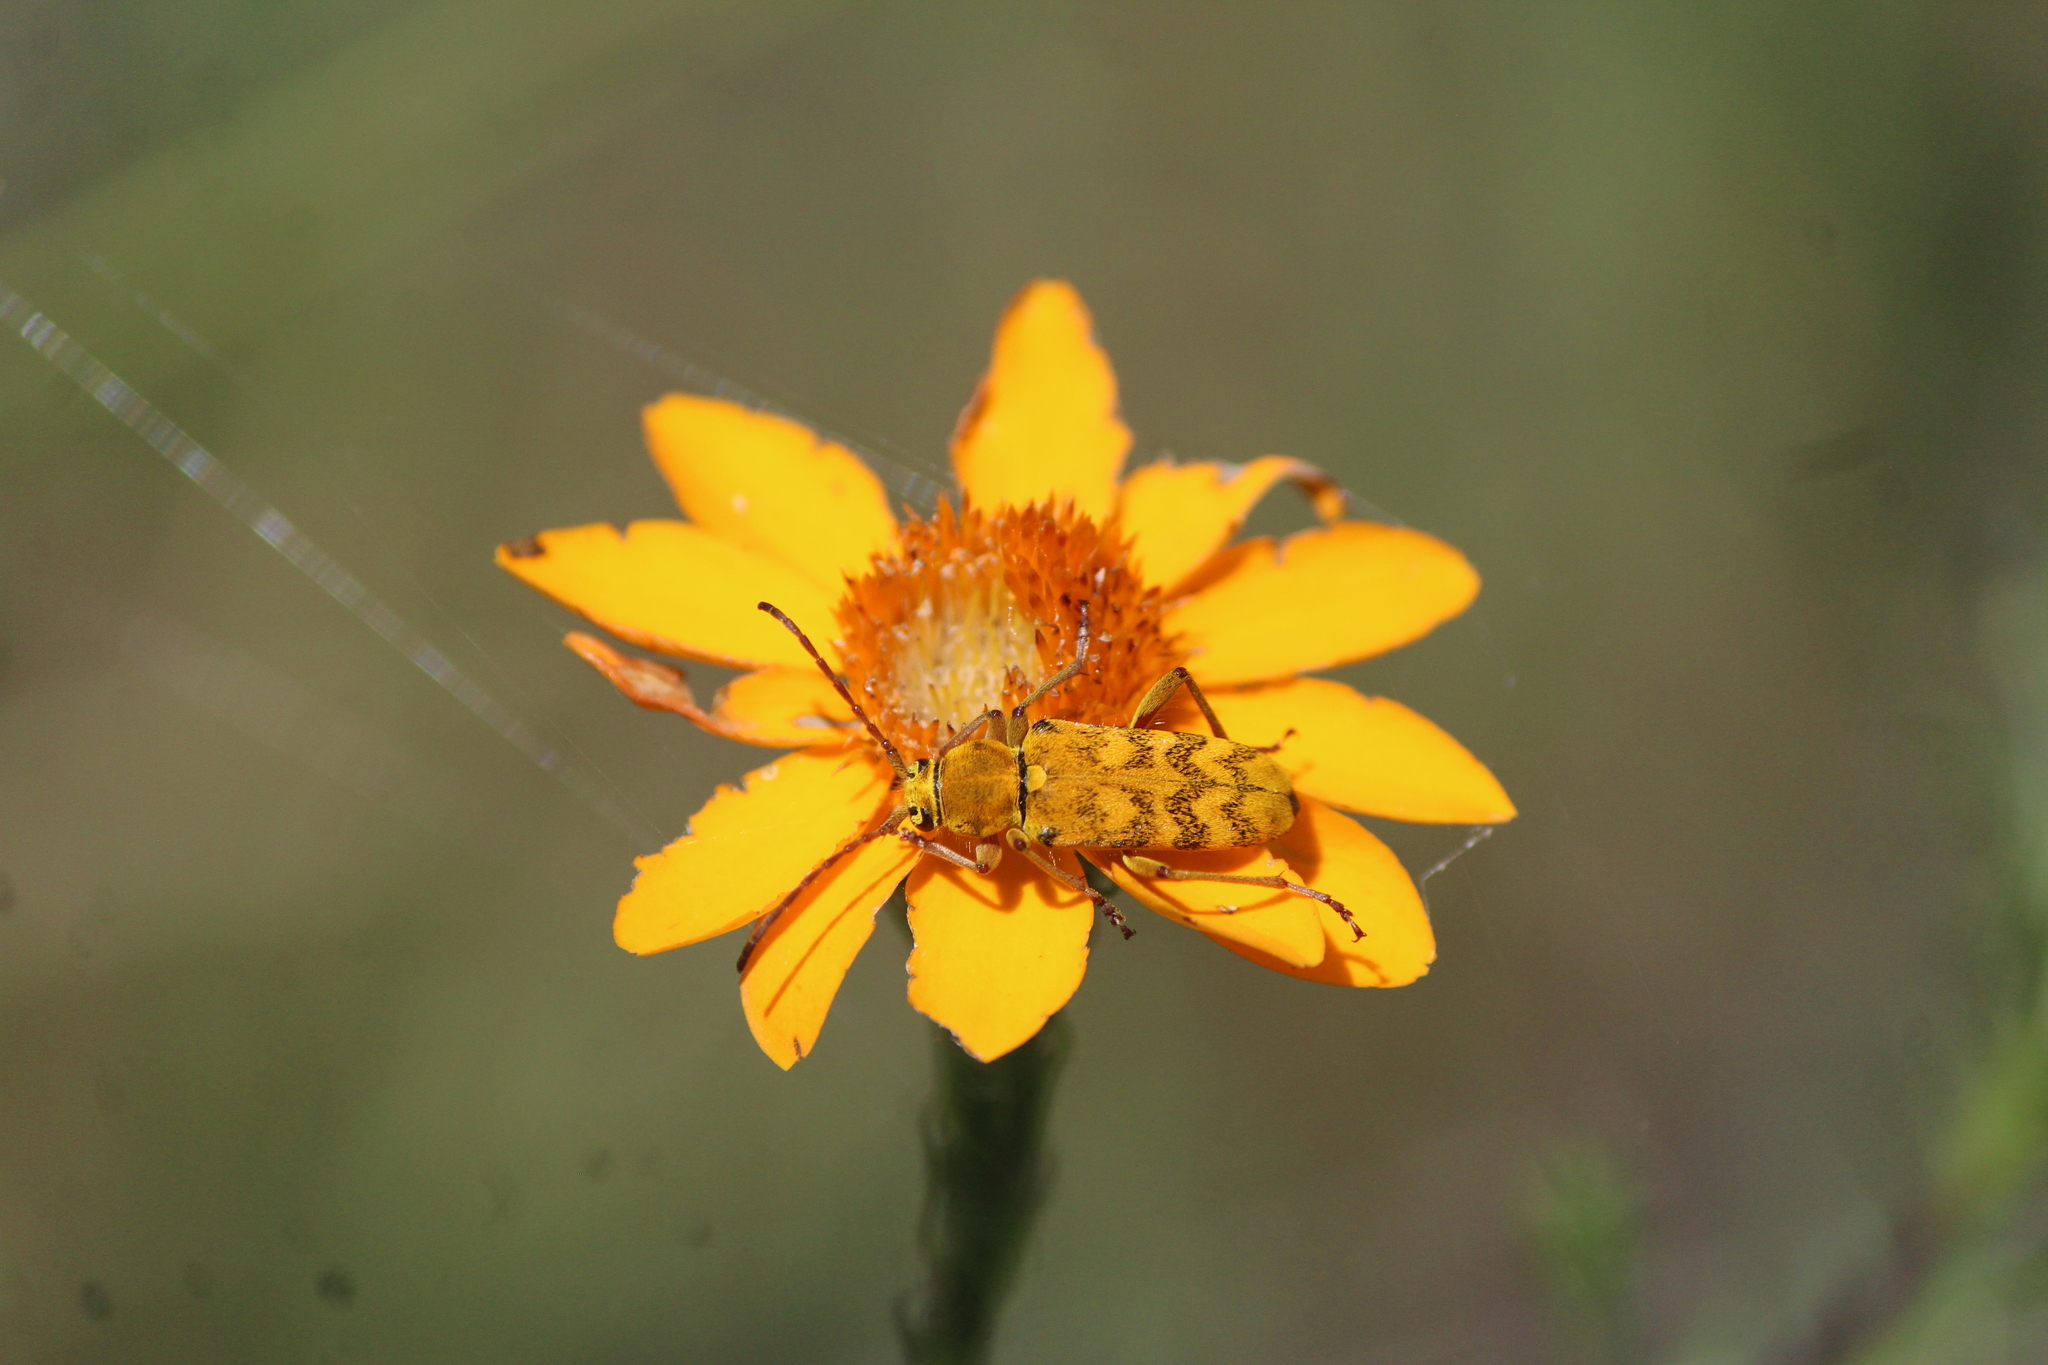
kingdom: Animalia
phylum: Arthropoda
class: Insecta
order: Coleoptera
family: Cerambycidae
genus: Ochraethes
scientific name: Ochraethes tulensis
